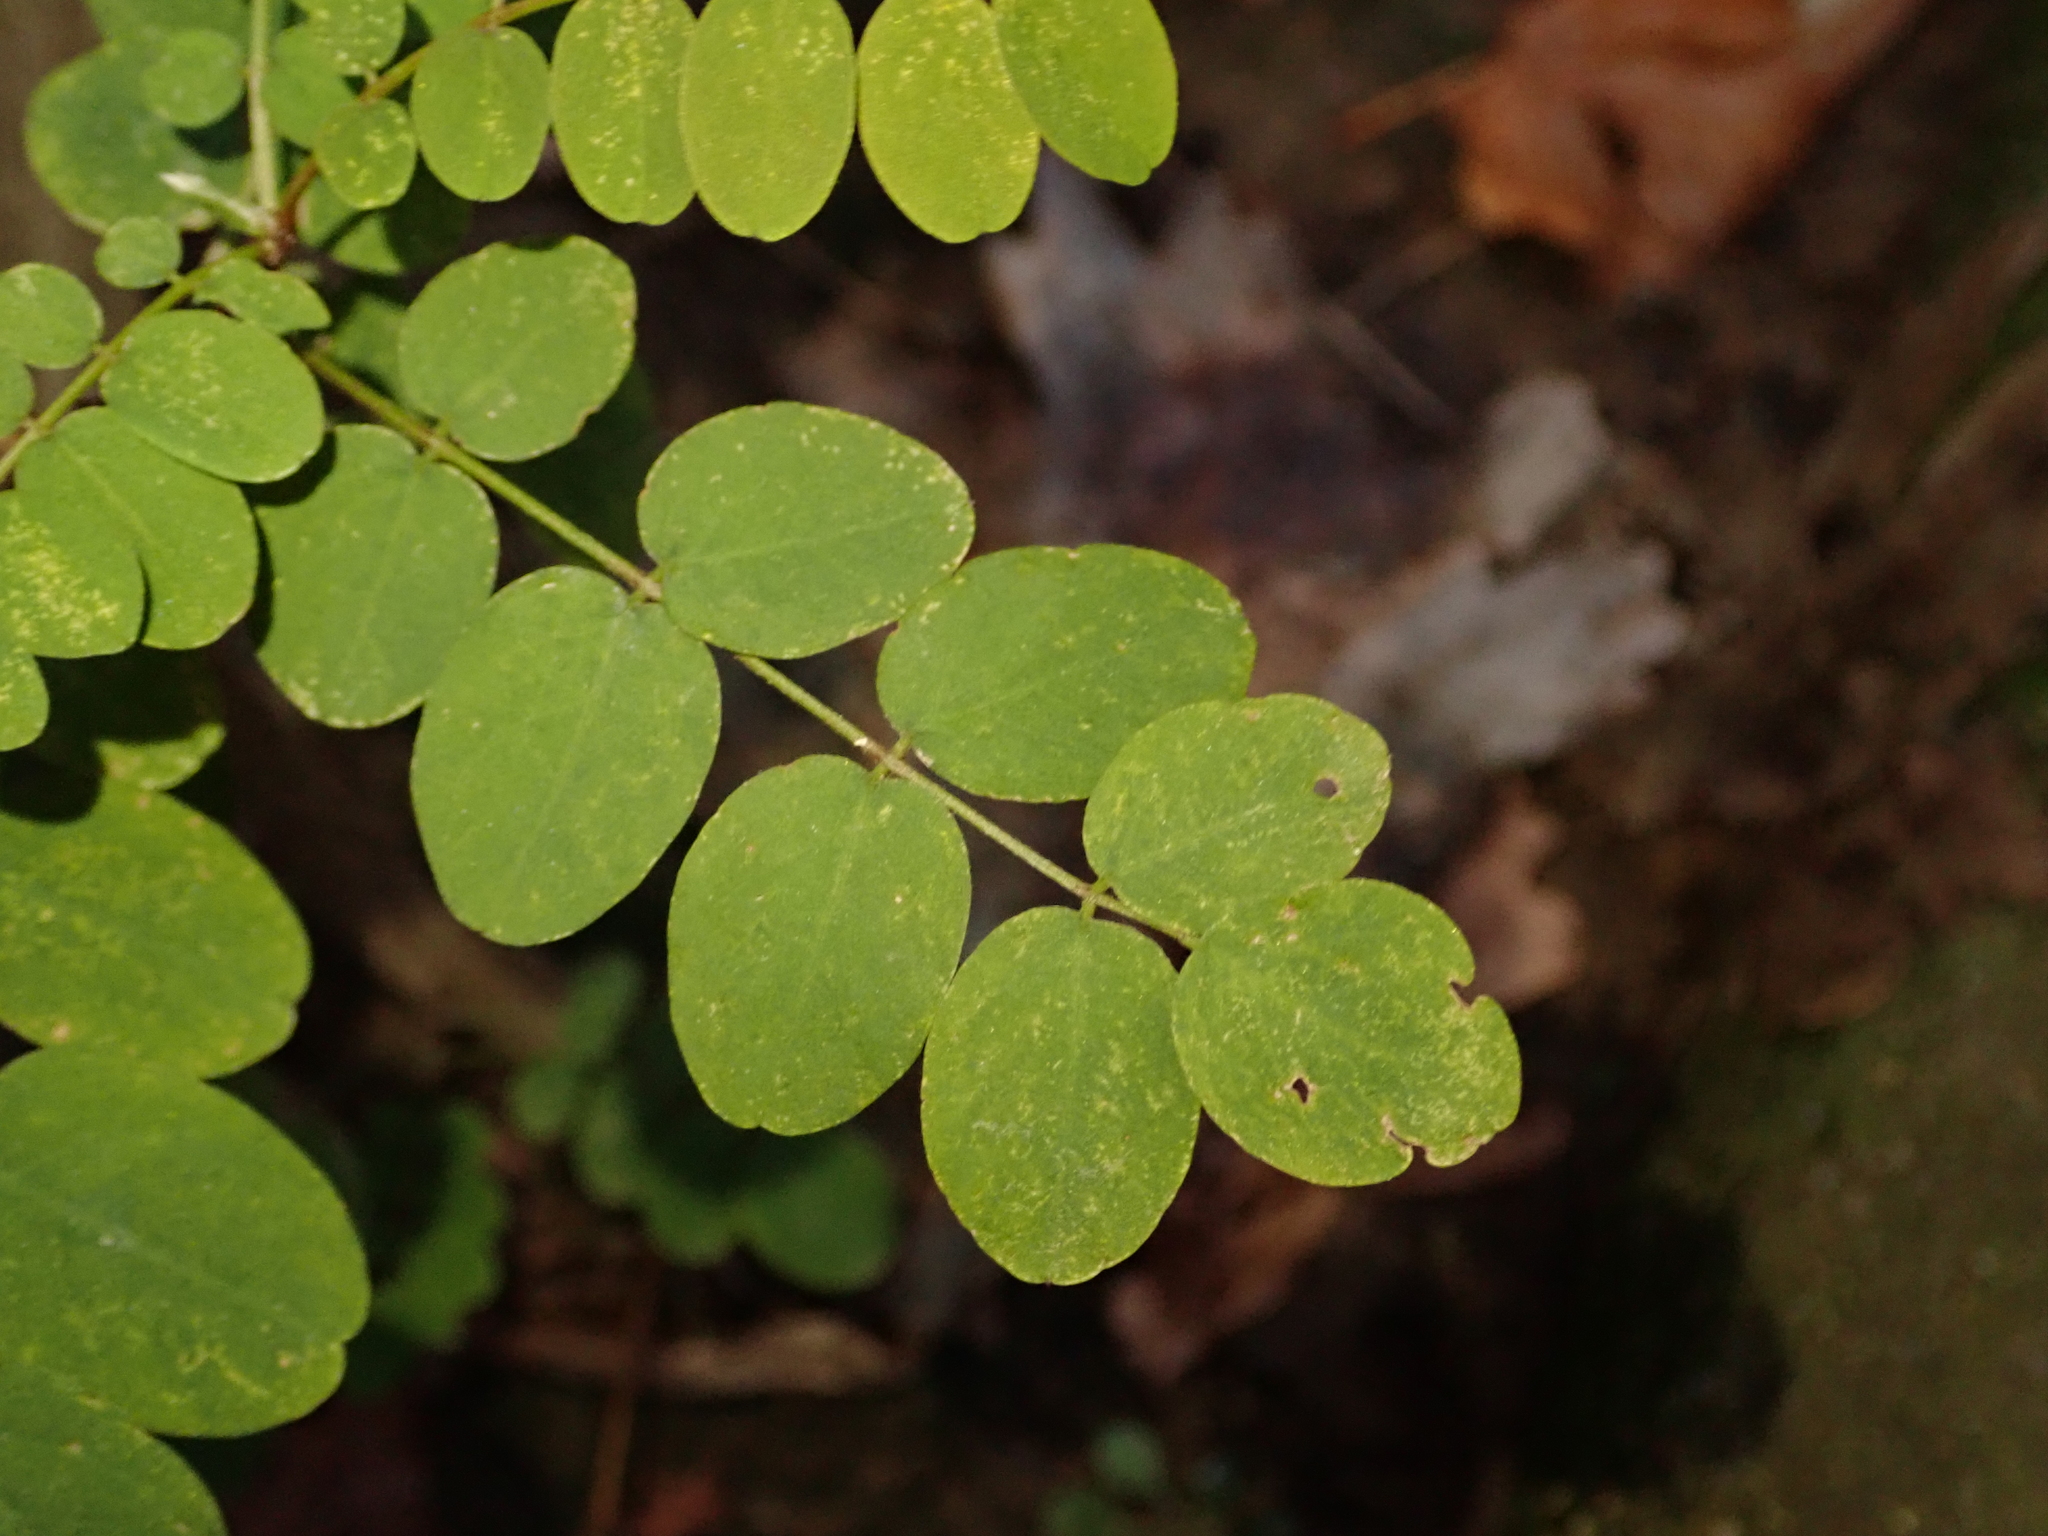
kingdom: Plantae
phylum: Tracheophyta
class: Magnoliopsida
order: Fabales
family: Fabaceae
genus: Robinia
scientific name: Robinia pseudoacacia
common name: Black locust
